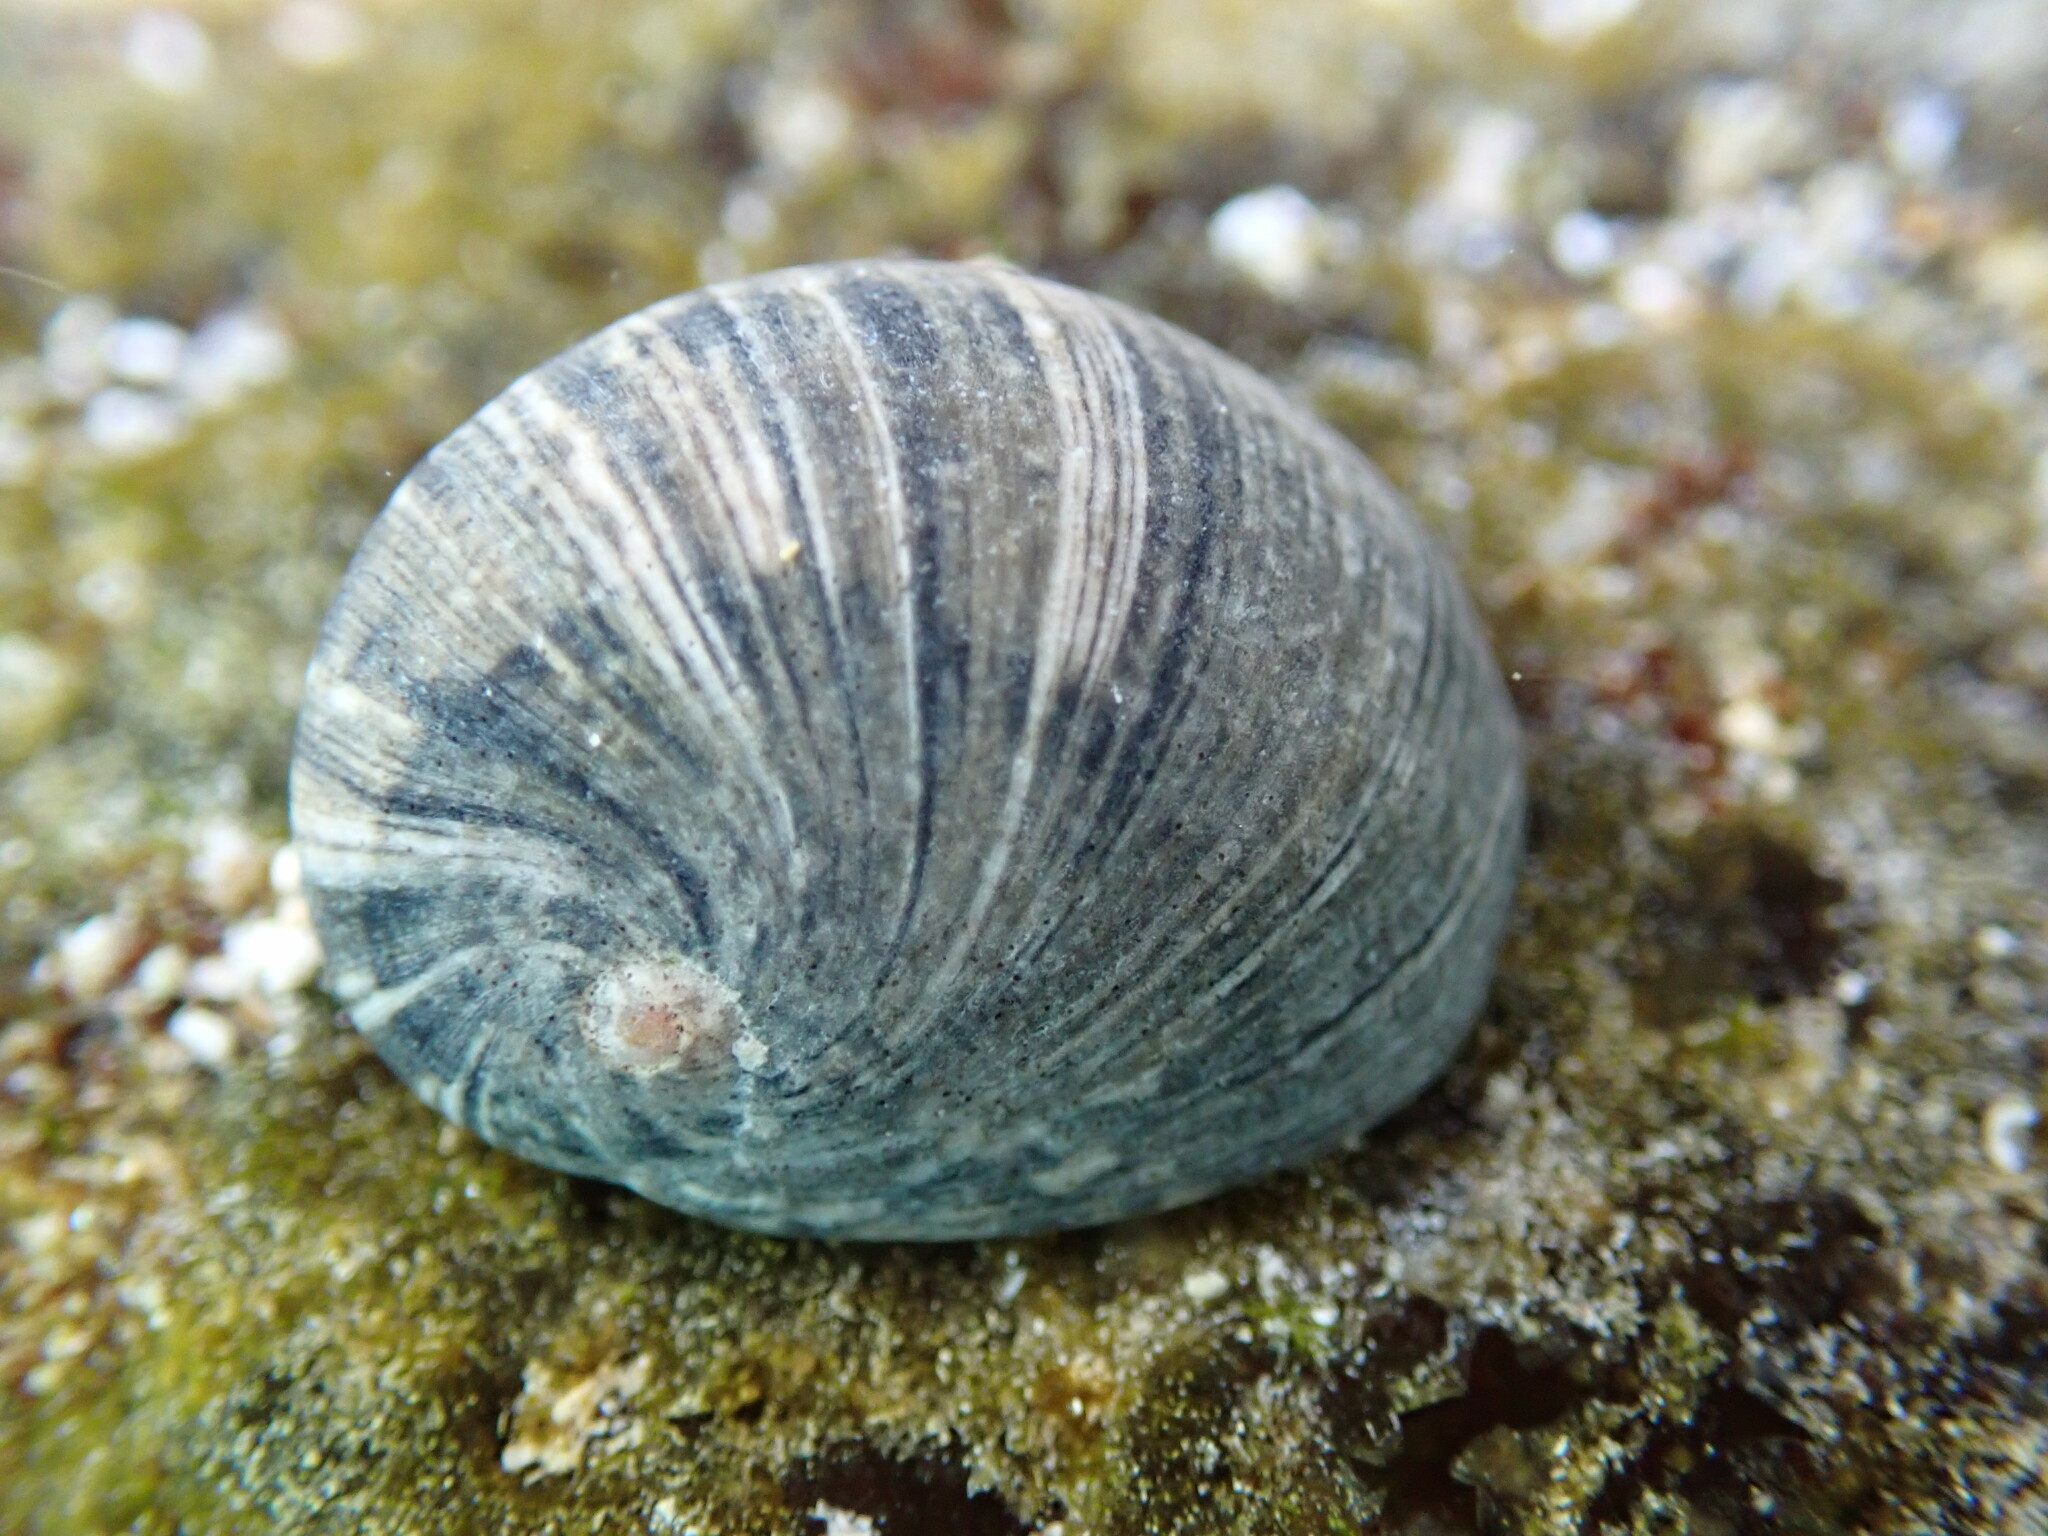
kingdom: Animalia
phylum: Mollusca
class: Gastropoda
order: Cycloneritida
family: Neritidae
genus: Nerita
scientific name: Nerita polita
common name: Polished nerite
